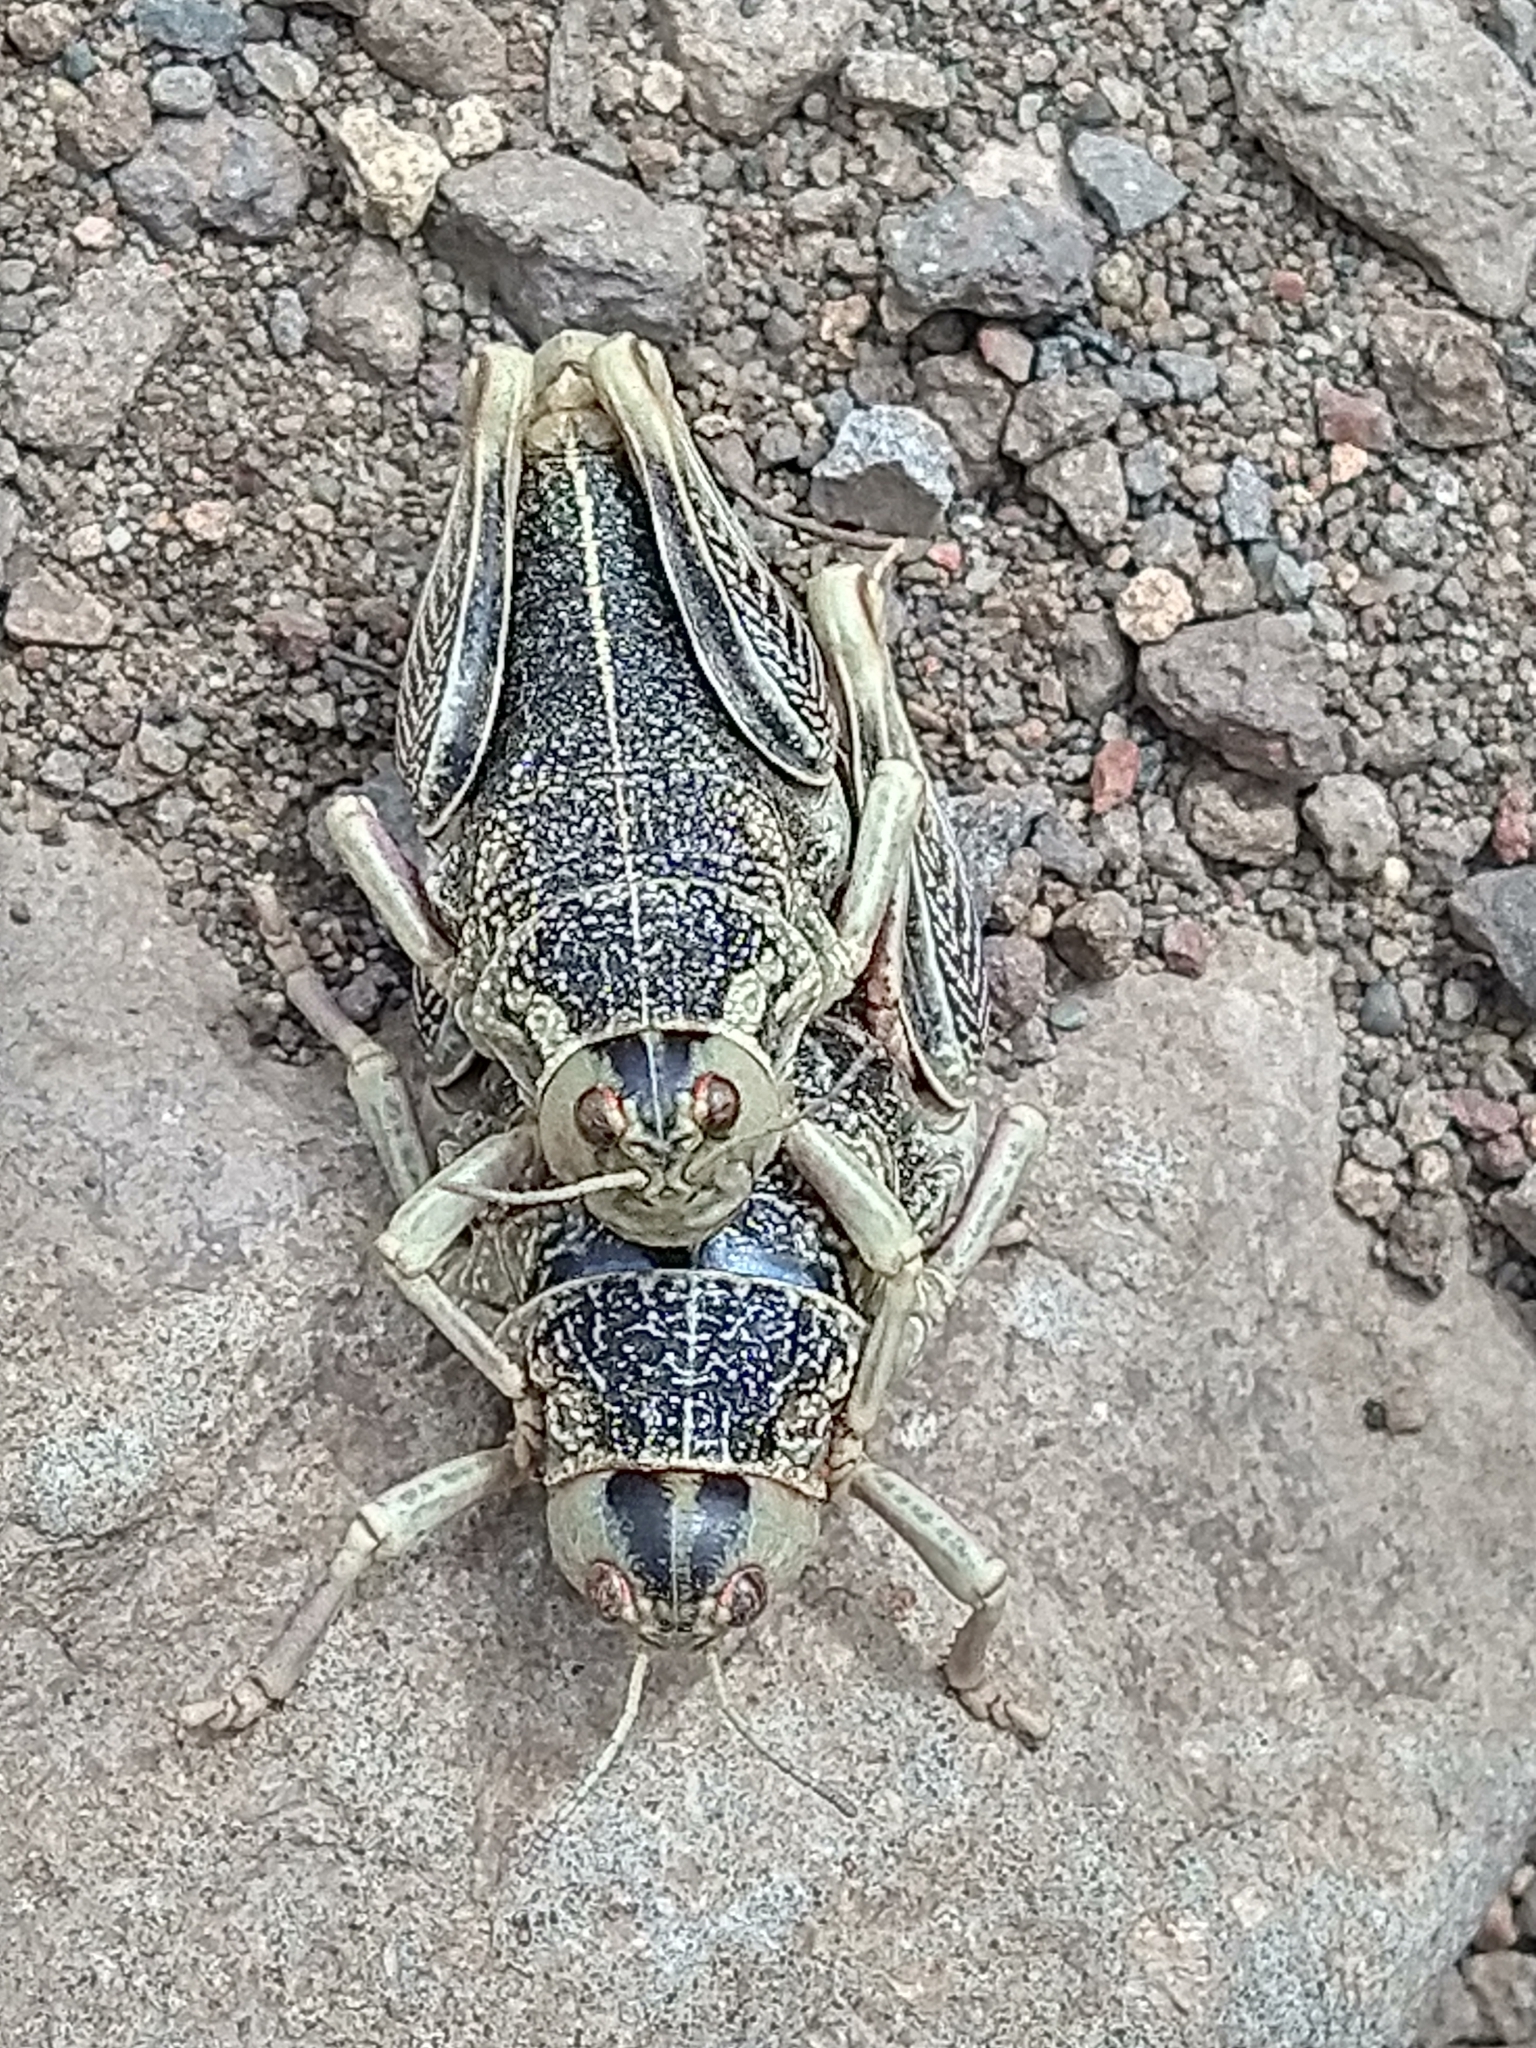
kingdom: Animalia
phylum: Arthropoda
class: Insecta
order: Orthoptera
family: Tristiridae
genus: Bufonacris
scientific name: Bufonacris claraziana
